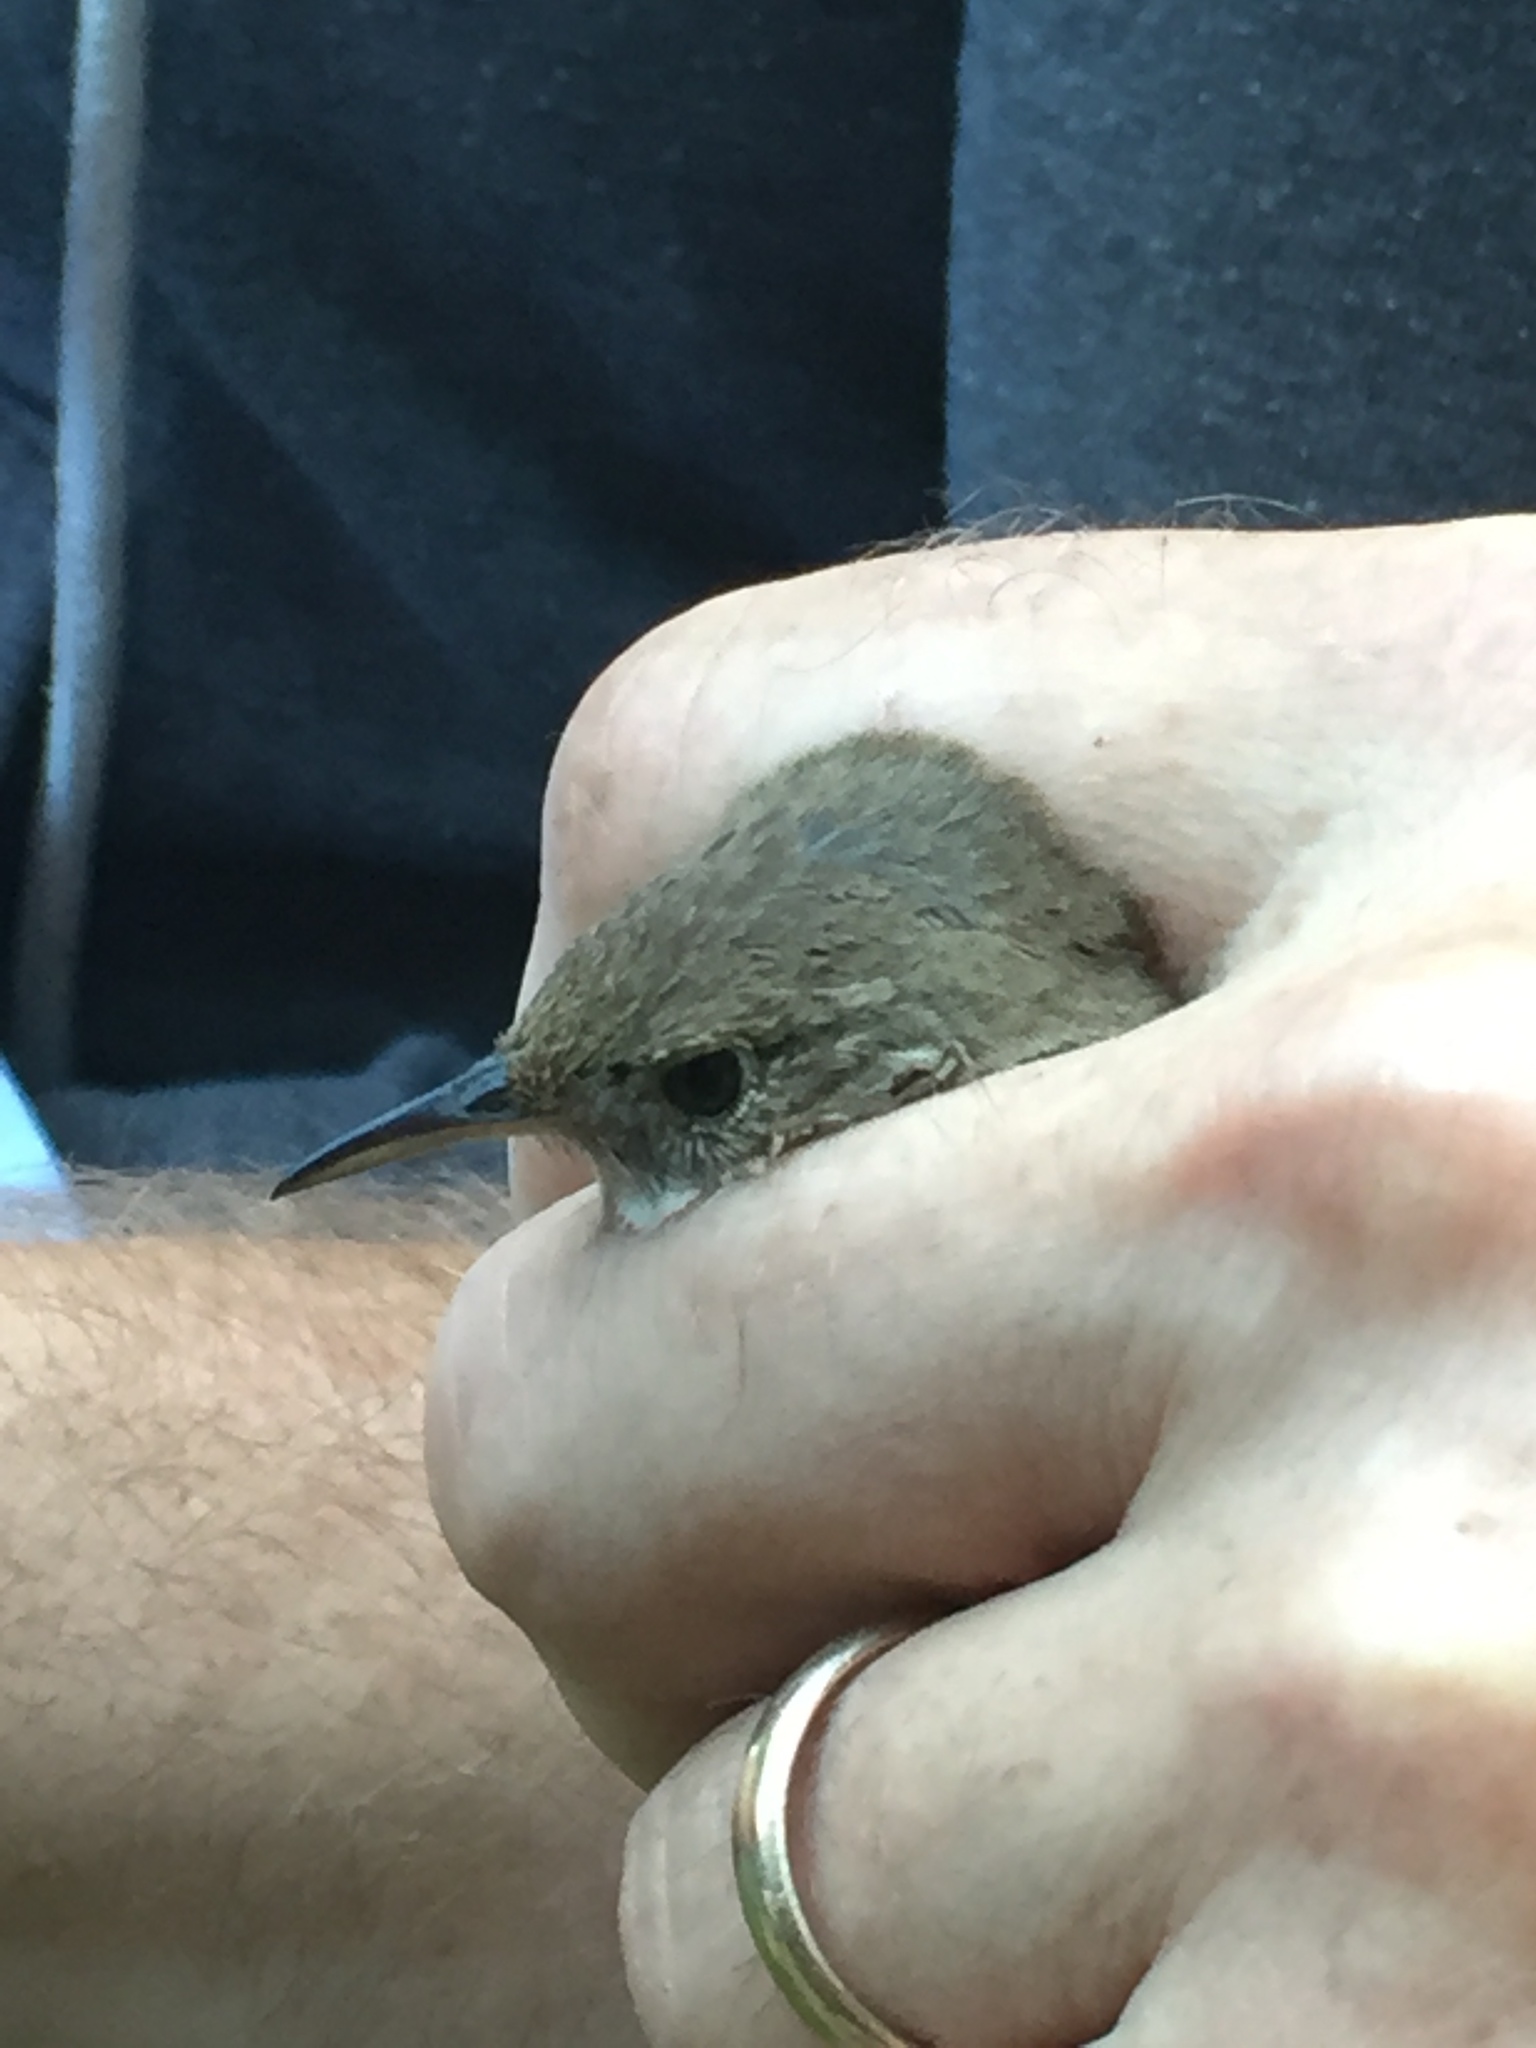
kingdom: Animalia
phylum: Chordata
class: Aves
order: Passeriformes
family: Troglodytidae
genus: Troglodytes
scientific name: Troglodytes aedon
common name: House wren
